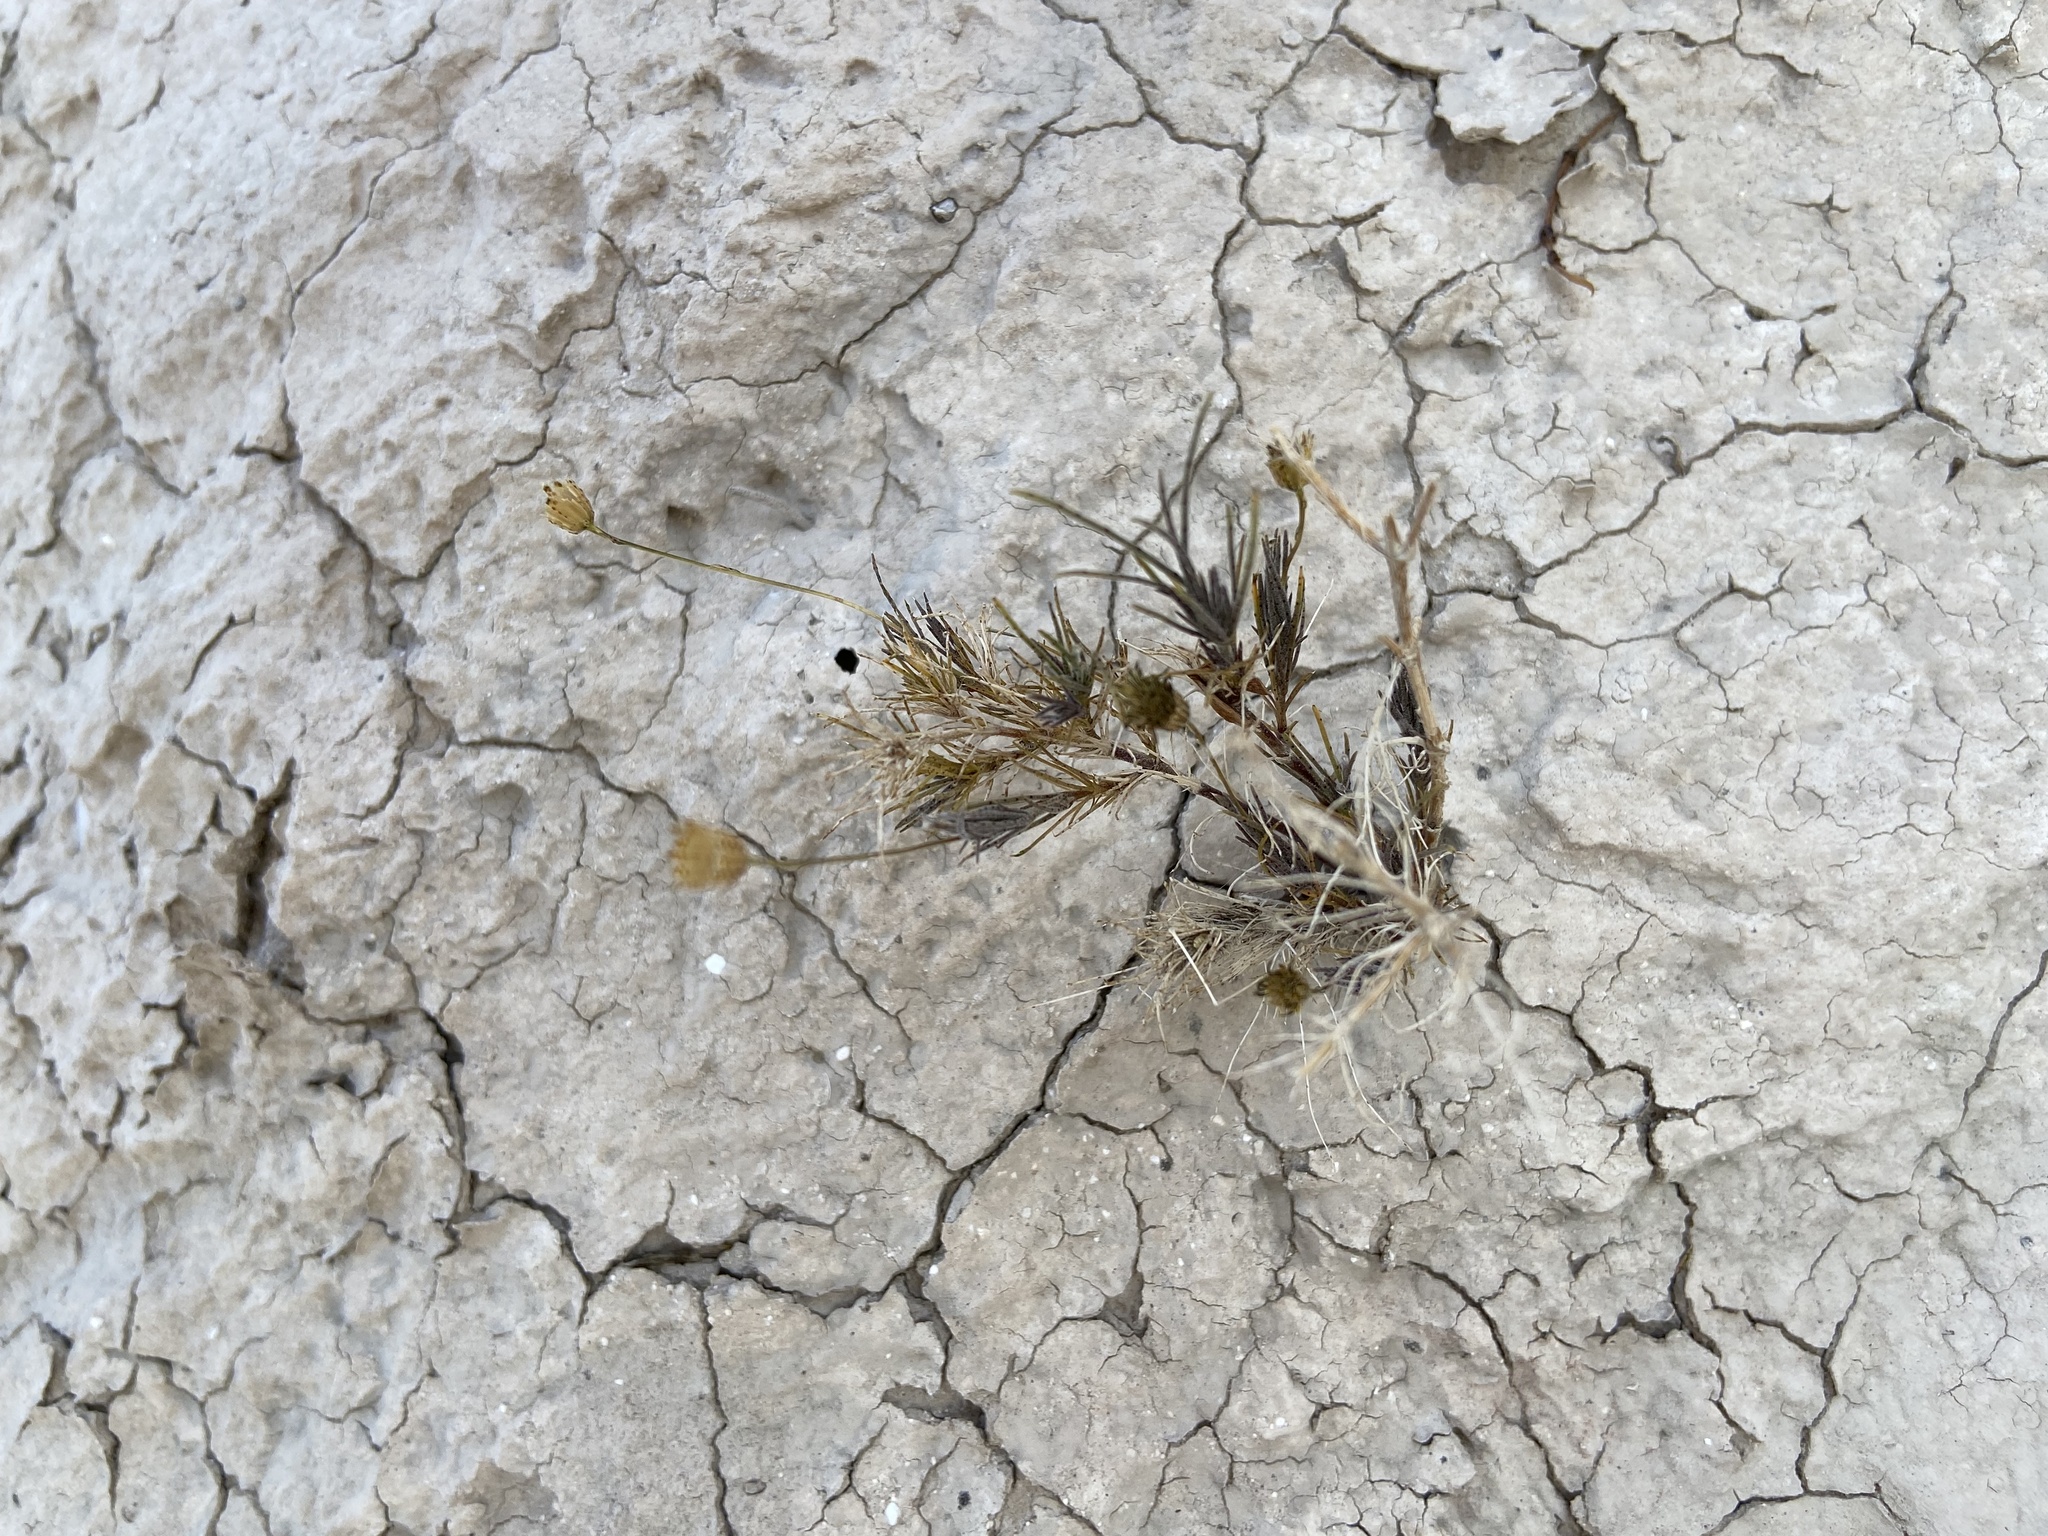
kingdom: Plantae
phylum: Tracheophyta
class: Magnoliopsida
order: Asterales
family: Asteraceae
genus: Thymophylla
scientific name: Thymophylla pentachaeta
